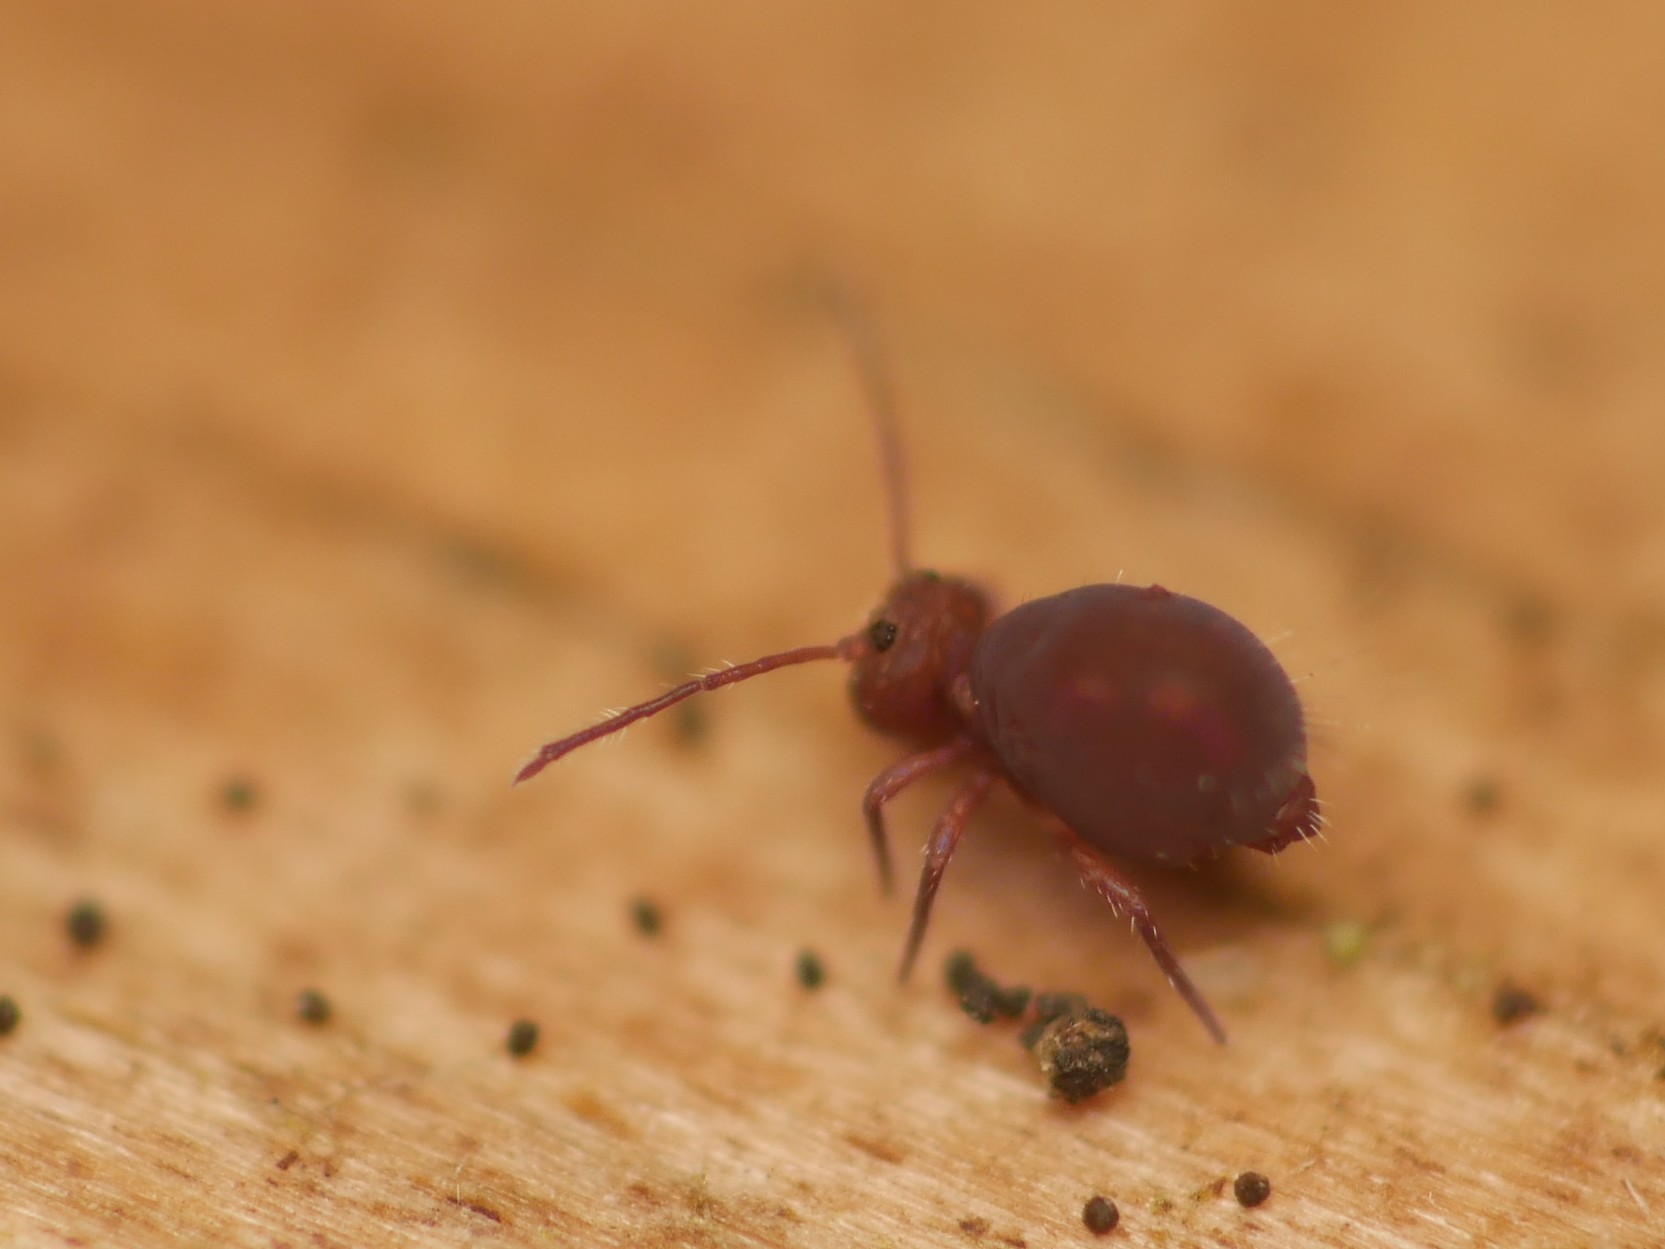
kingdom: Animalia
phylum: Arthropoda
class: Collembola
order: Symphypleona
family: Dicyrtomidae
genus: Dicyrtoma
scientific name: Dicyrtoma fusca
